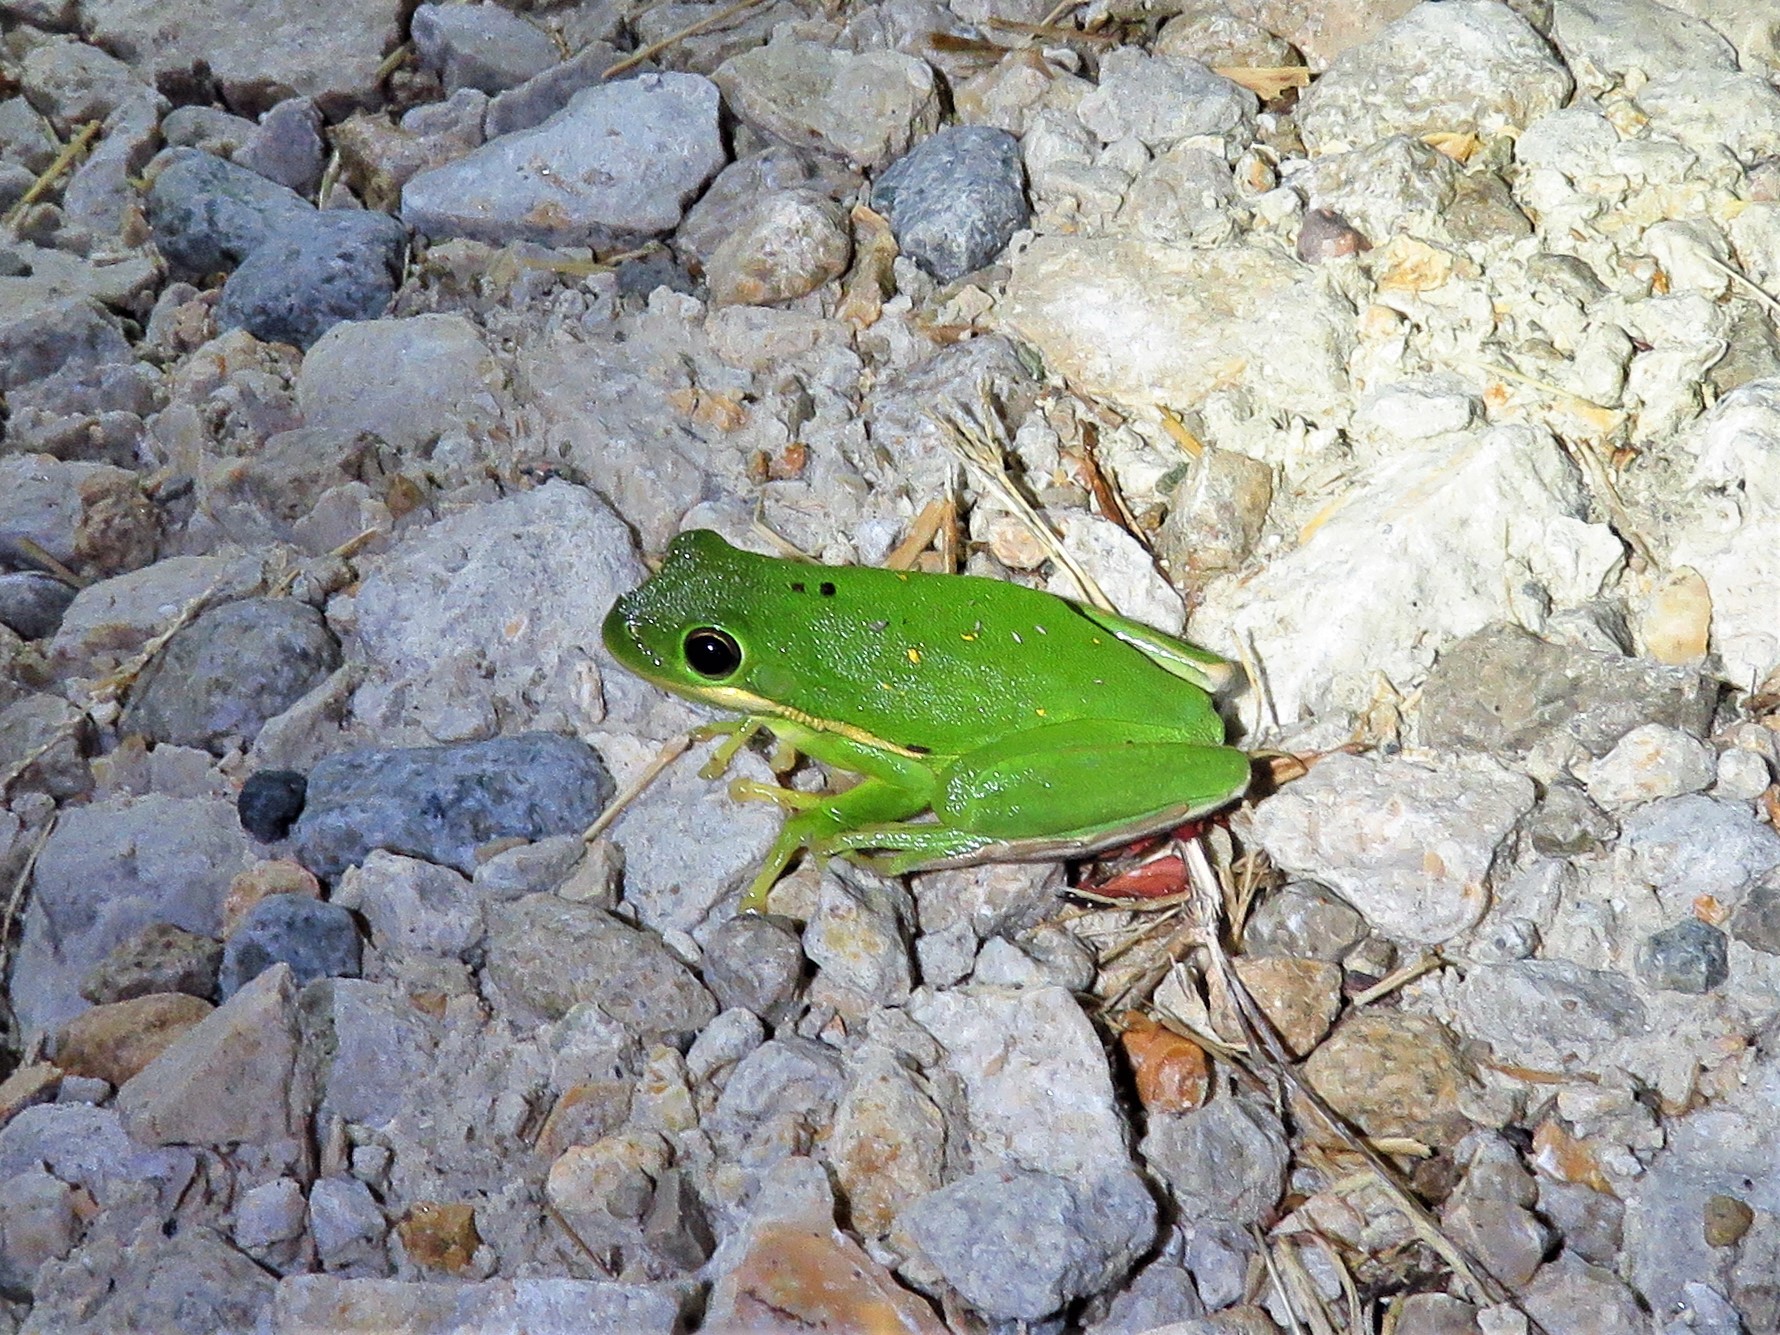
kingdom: Animalia
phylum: Chordata
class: Amphibia
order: Anura
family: Hylidae
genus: Dryophytes
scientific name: Dryophytes cinereus
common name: Green treefrog
